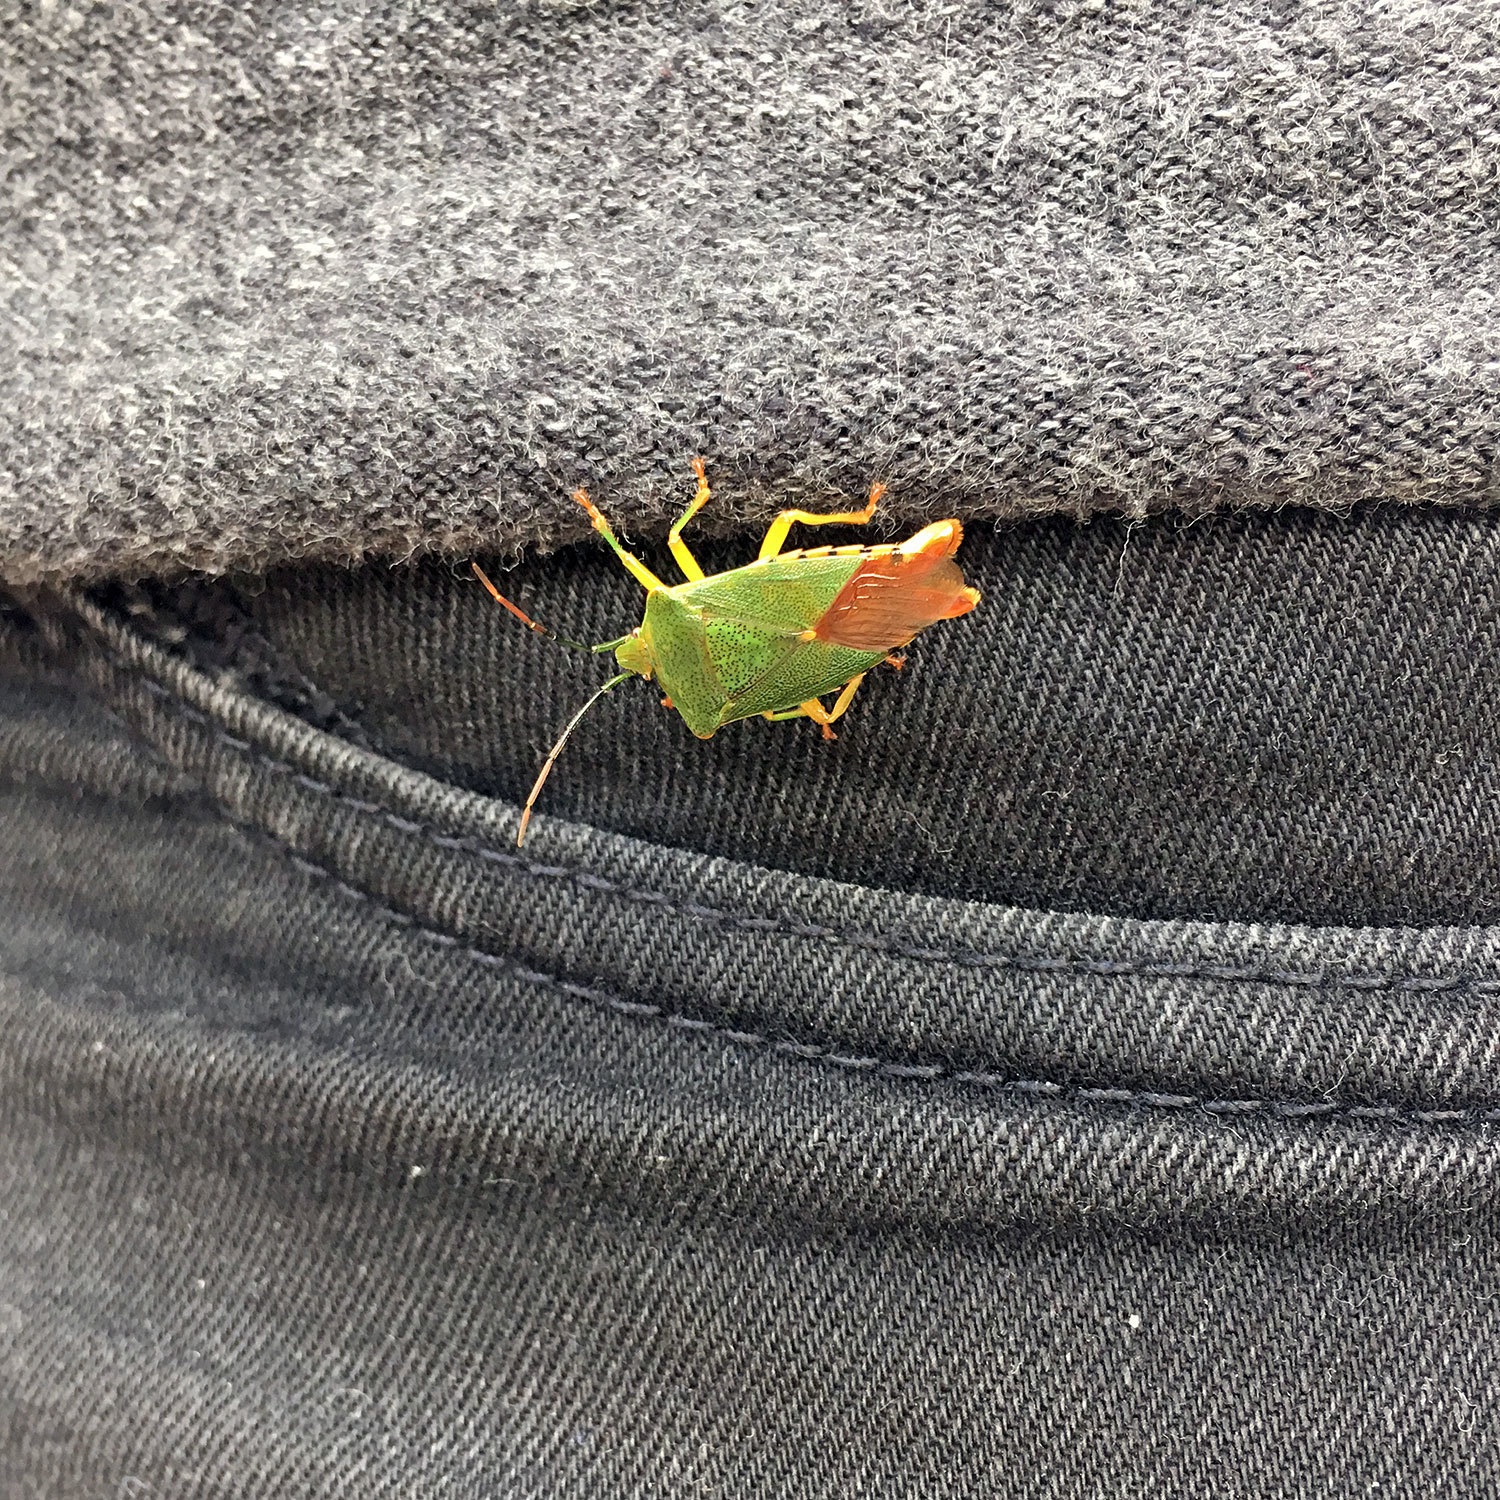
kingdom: Animalia
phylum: Arthropoda
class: Insecta
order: Hemiptera
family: Acanthosomatidae
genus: Acanthosoma
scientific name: Acanthosoma crassicaudum
